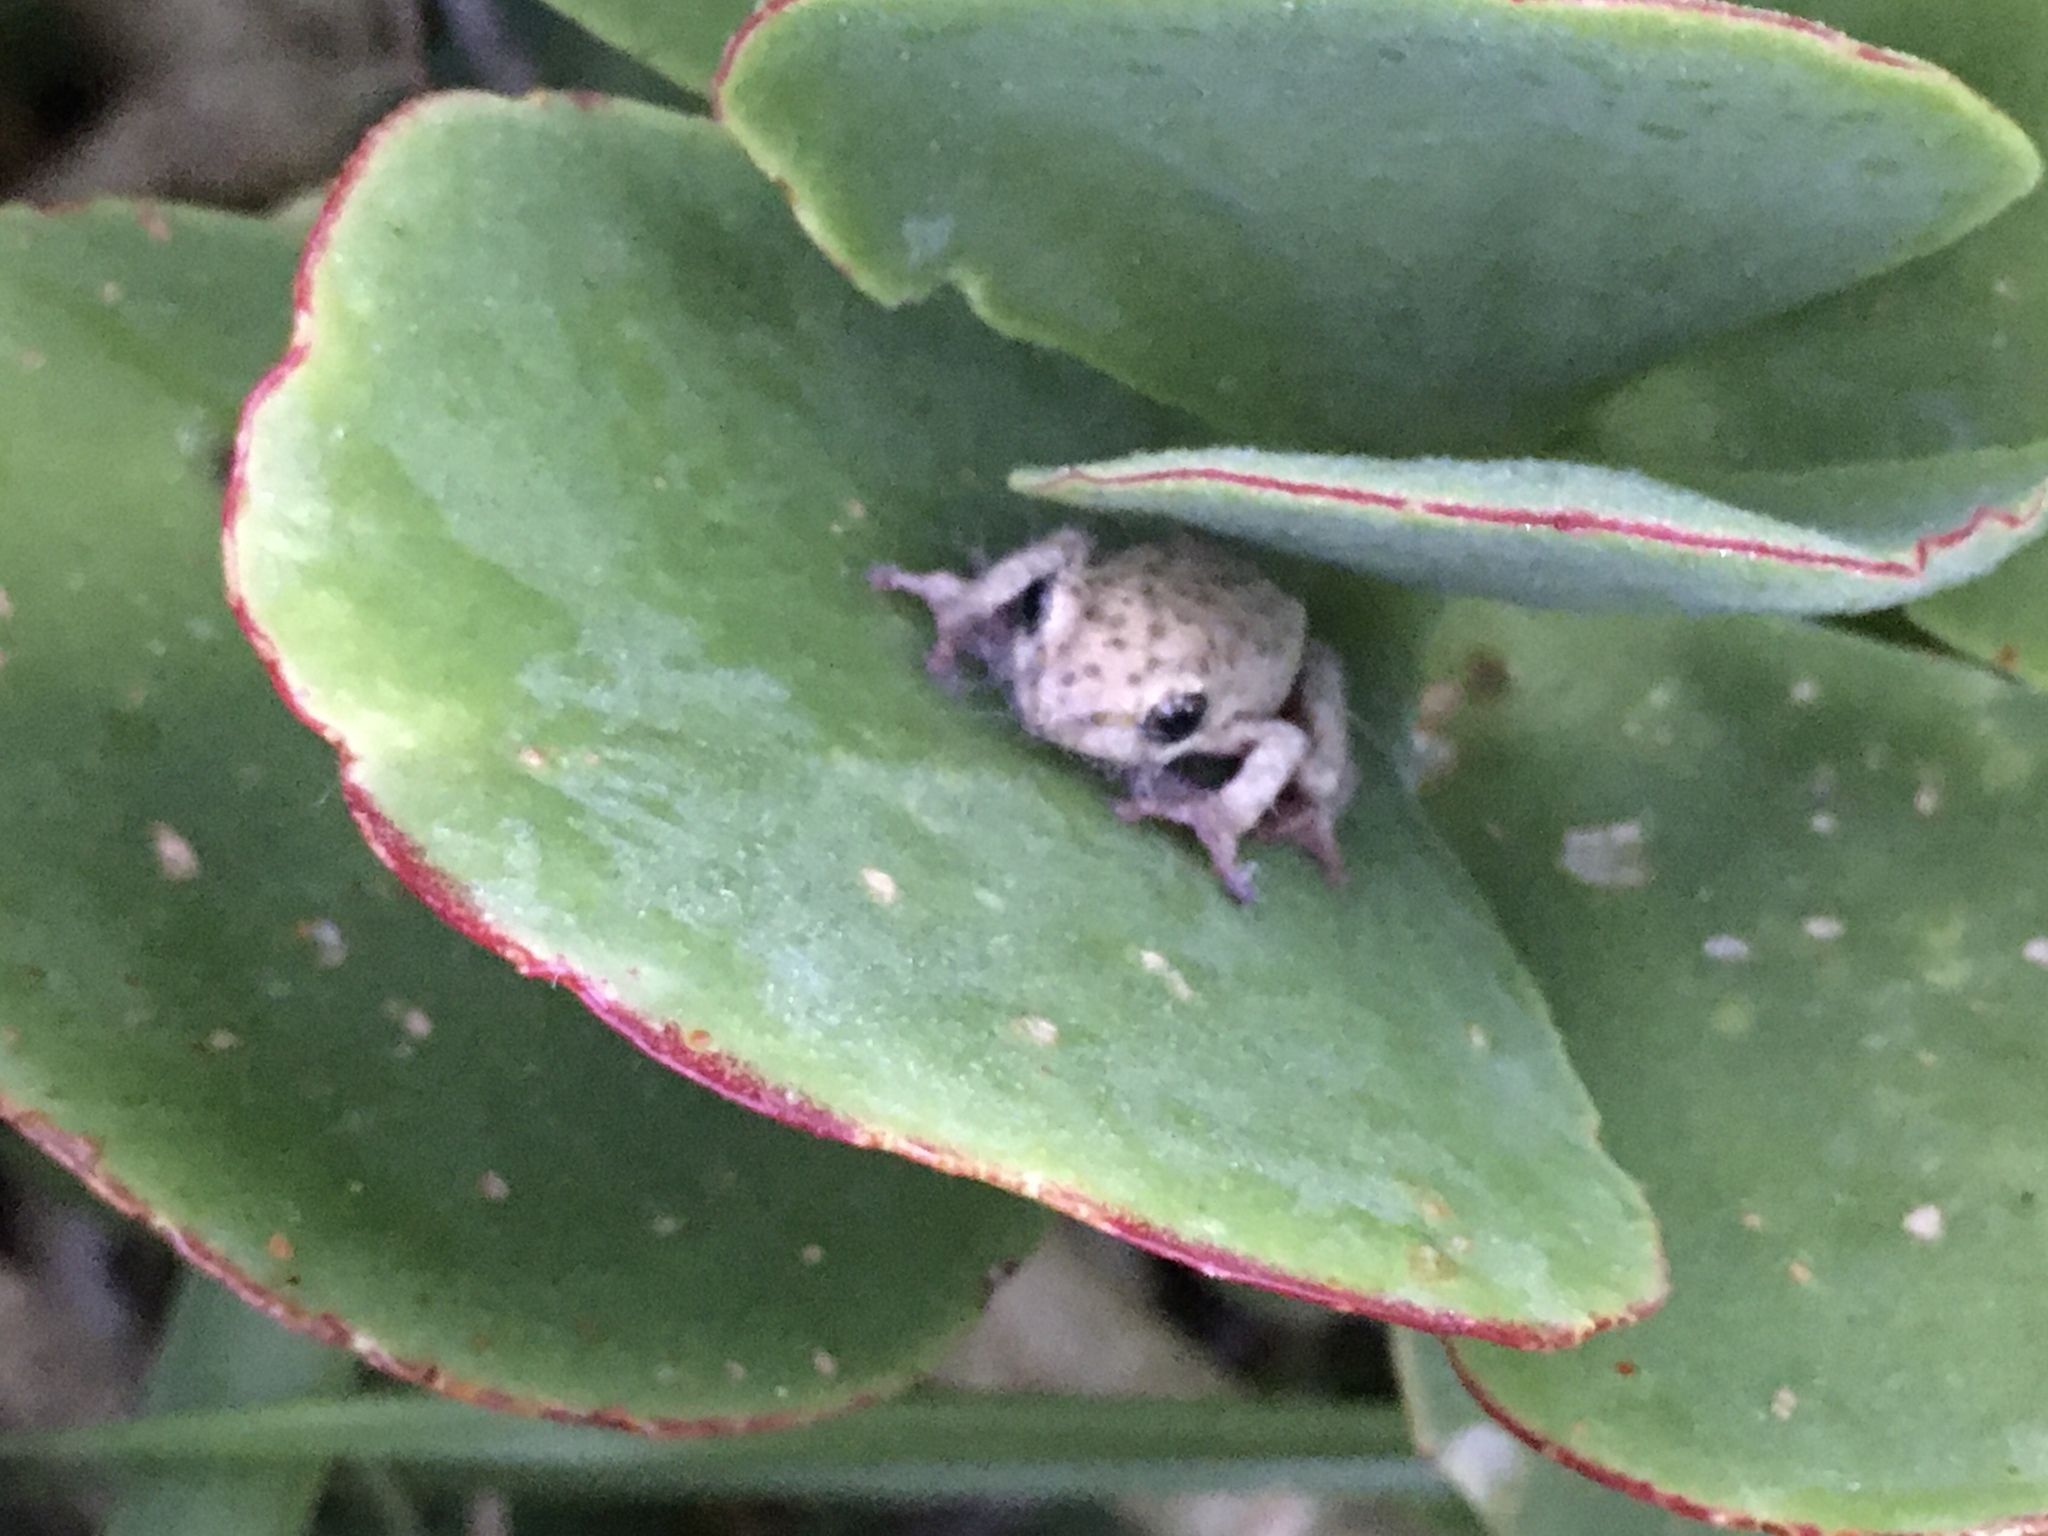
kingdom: Animalia
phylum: Chordata
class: Amphibia
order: Anura
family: Hyperoliidae
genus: Hyperolius
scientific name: Hyperolius marmoratus
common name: Painted reed frog
